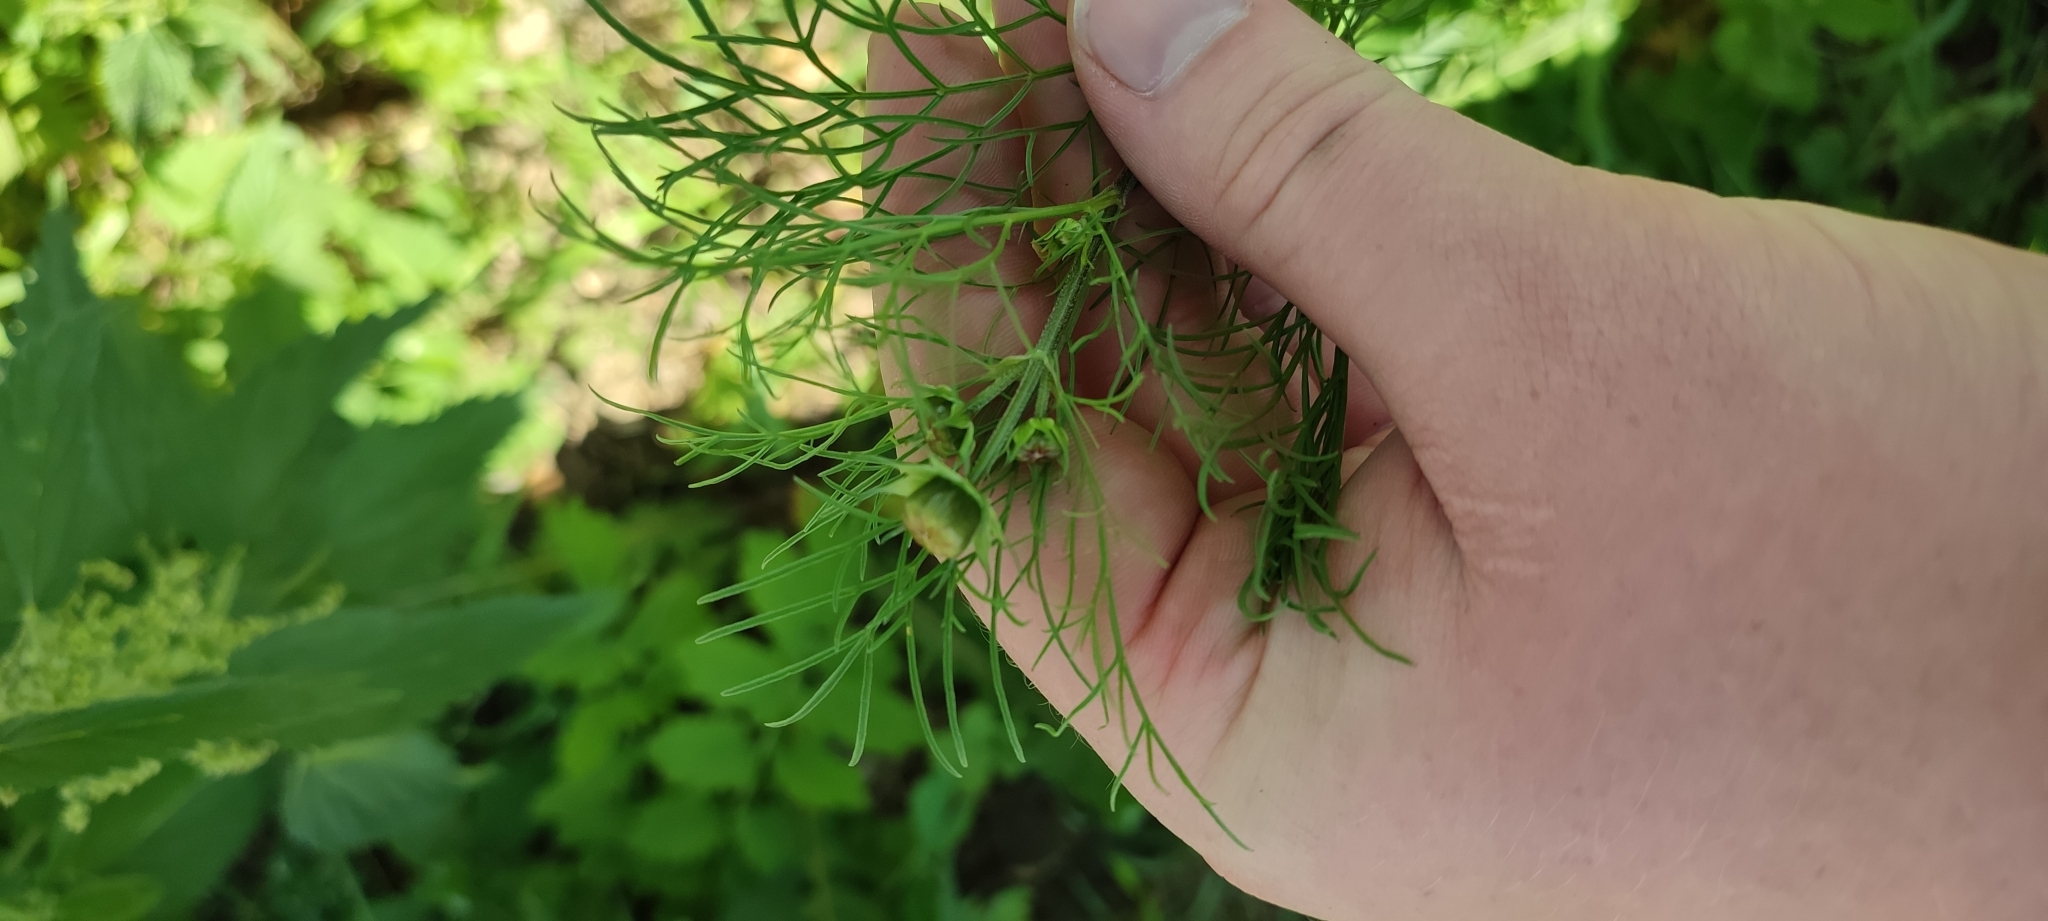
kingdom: Plantae
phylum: Tracheophyta
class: Magnoliopsida
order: Asterales
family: Asteraceae
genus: Cosmos
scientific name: Cosmos bipinnatus
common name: Garden cosmos
